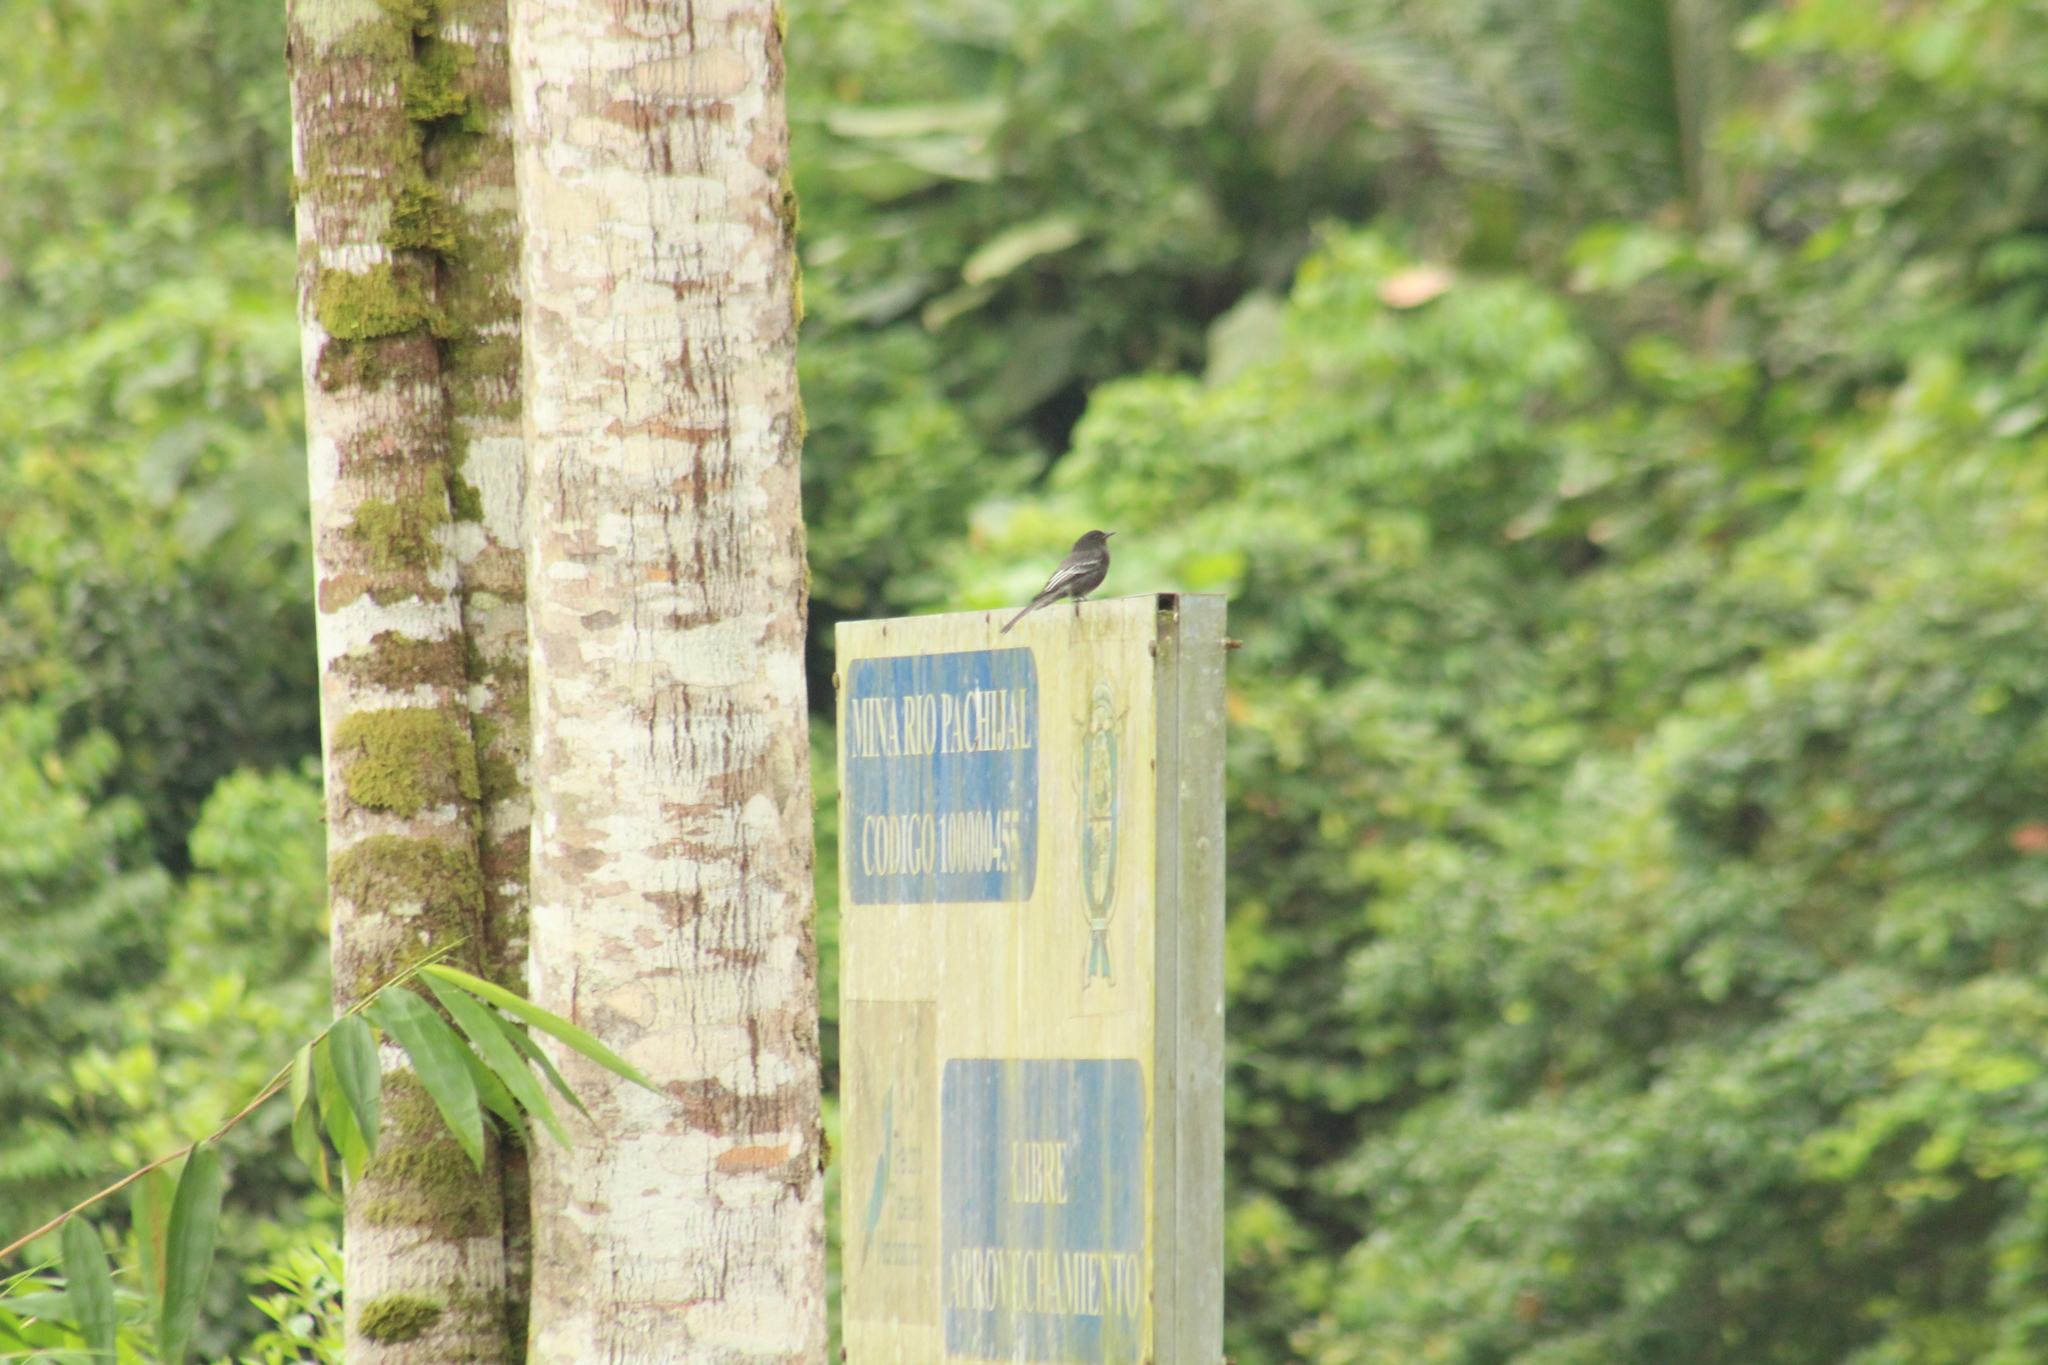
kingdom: Animalia
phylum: Chordata
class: Aves
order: Passeriformes
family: Tyrannidae
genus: Sayornis
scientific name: Sayornis nigricans
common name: Black phoebe
